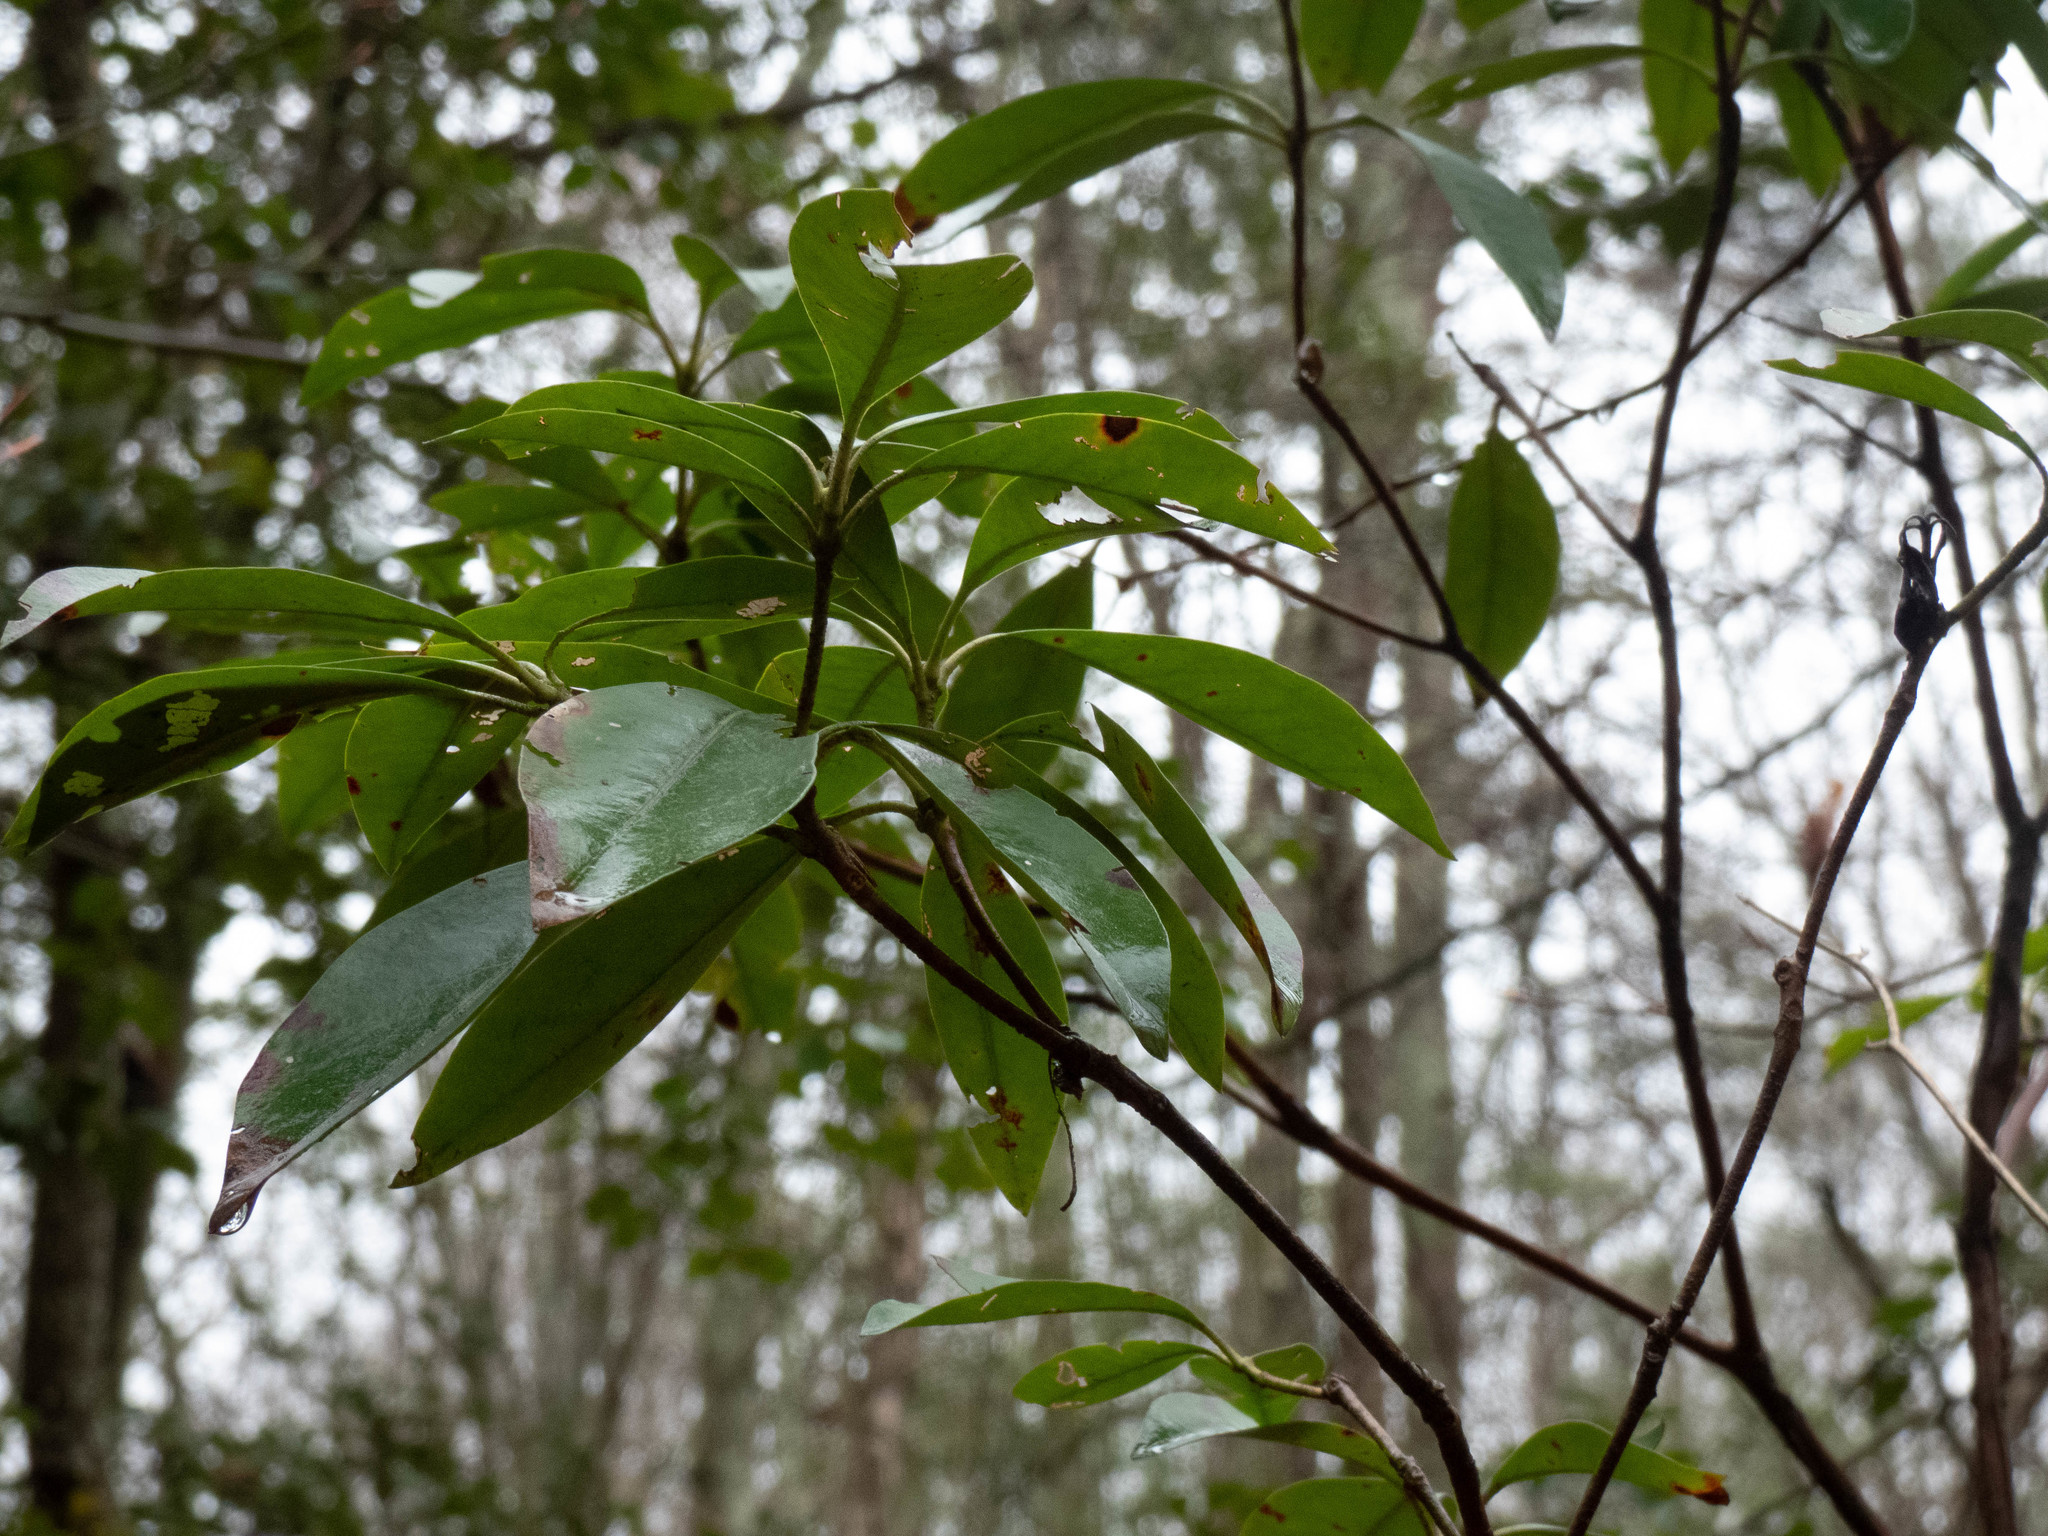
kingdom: Plantae
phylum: Tracheophyta
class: Magnoliopsida
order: Ericales
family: Ericaceae
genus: Kalmia
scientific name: Kalmia latifolia
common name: Mountain-laurel
